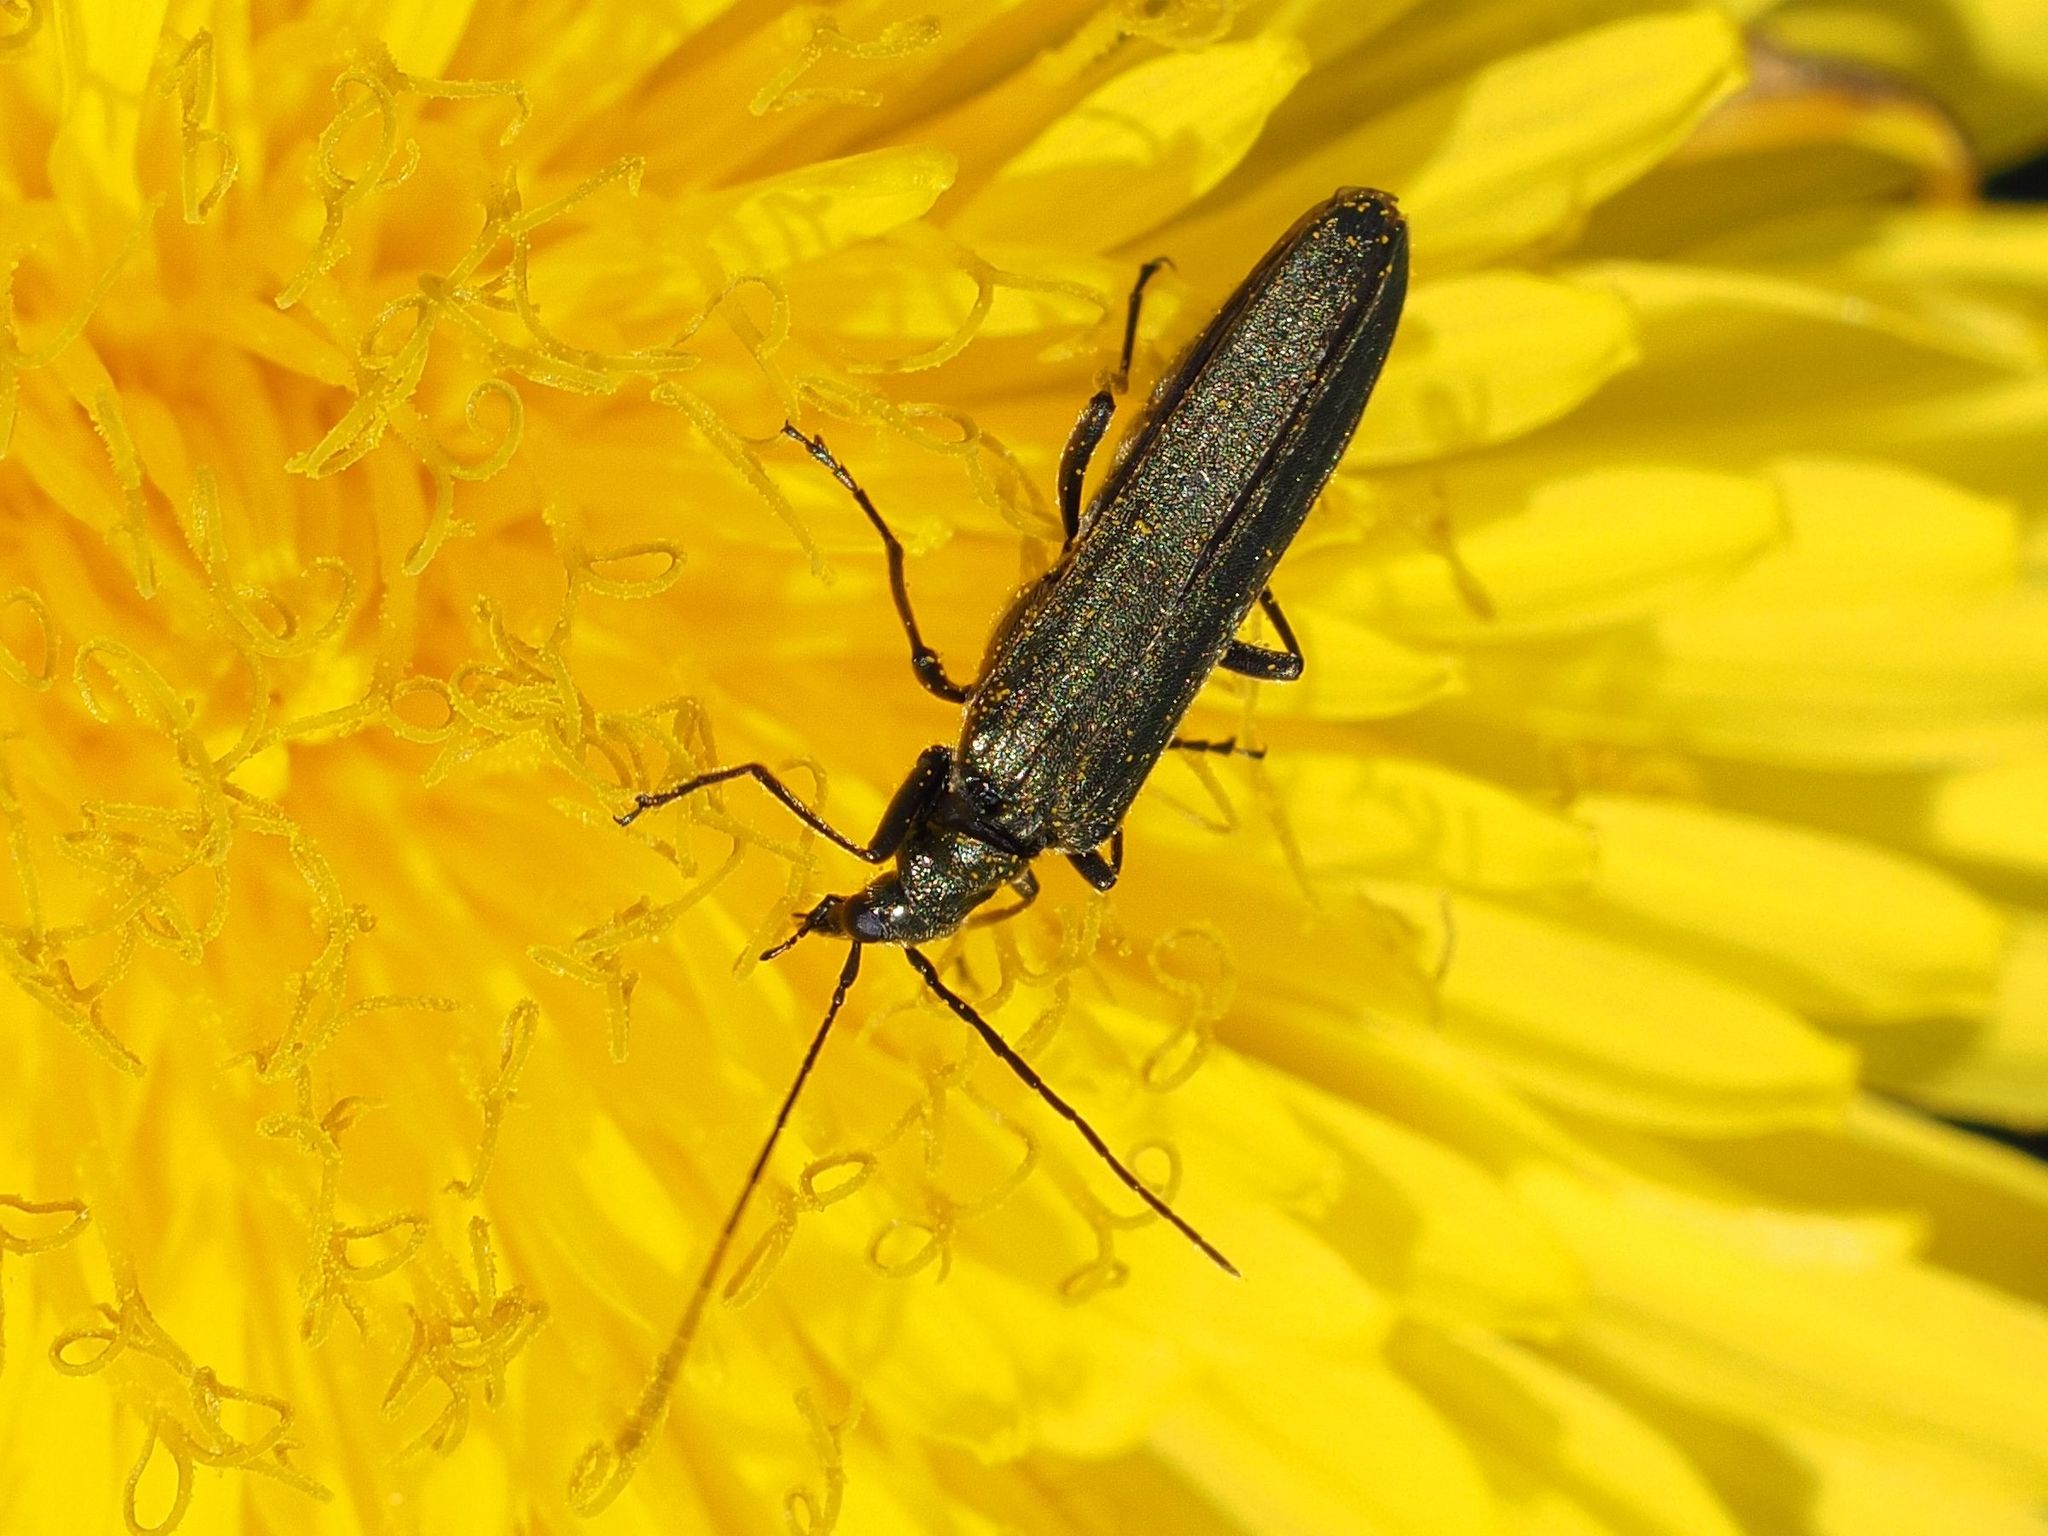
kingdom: Animalia
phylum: Arthropoda
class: Insecta
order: Coleoptera
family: Oedemeridae
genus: Oedemera
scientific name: Oedemera virescens
